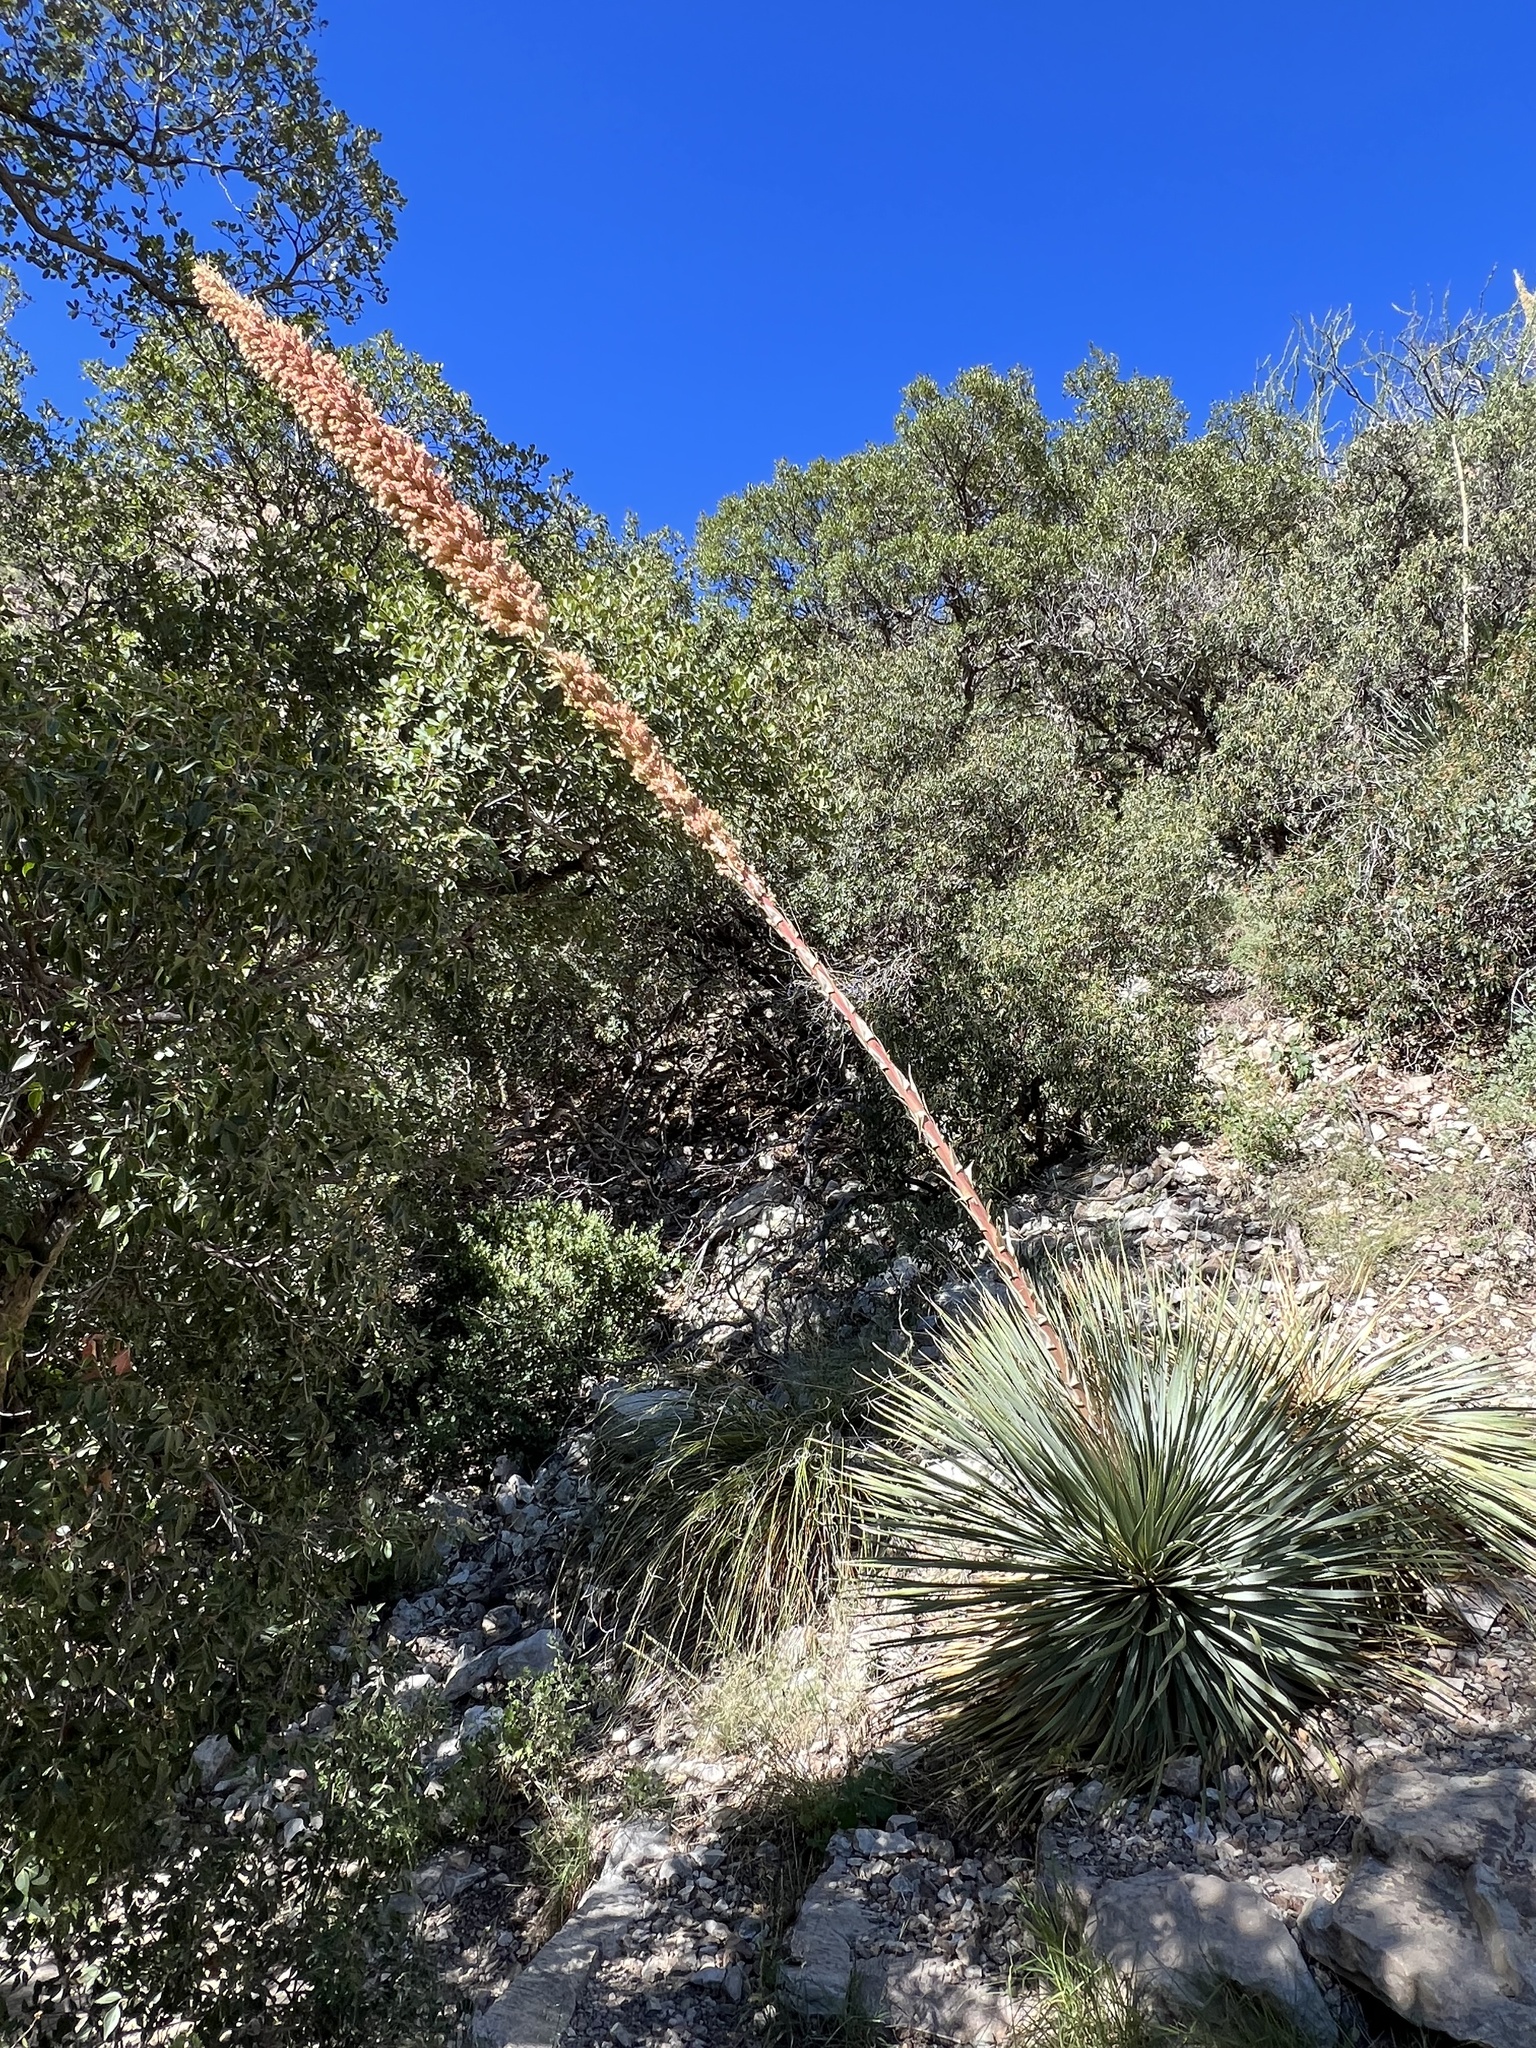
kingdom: Plantae
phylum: Tracheophyta
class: Liliopsida
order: Asparagales
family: Asparagaceae
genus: Dasylirion
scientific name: Dasylirion wheeleri
